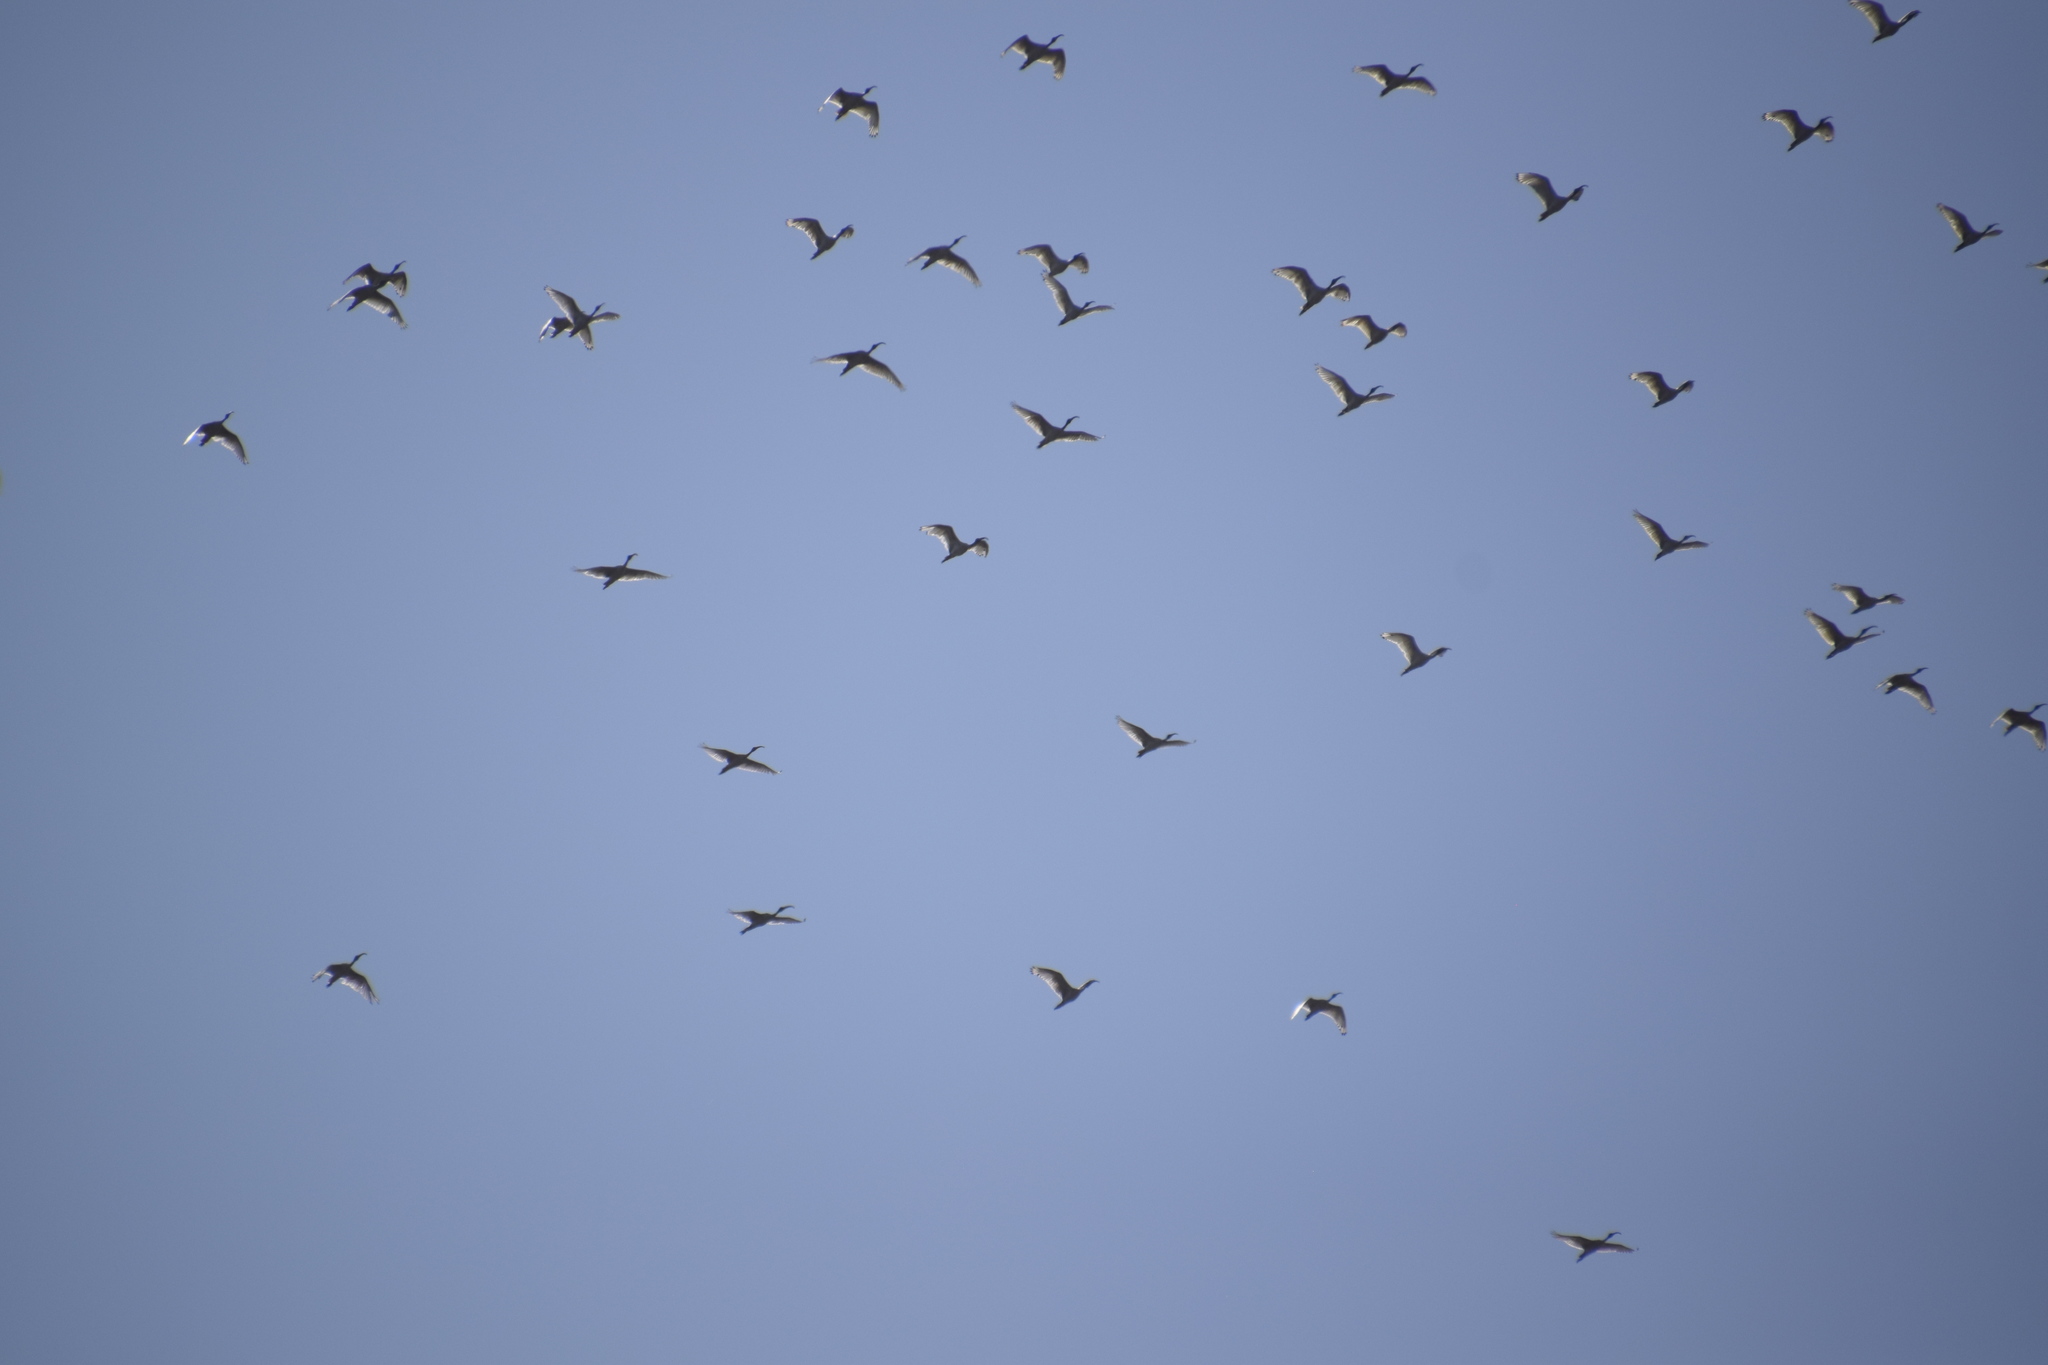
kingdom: Animalia
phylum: Chordata
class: Aves
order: Pelecaniformes
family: Threskiornithidae
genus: Threskiornis
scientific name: Threskiornis molucca
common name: Australian white ibis
